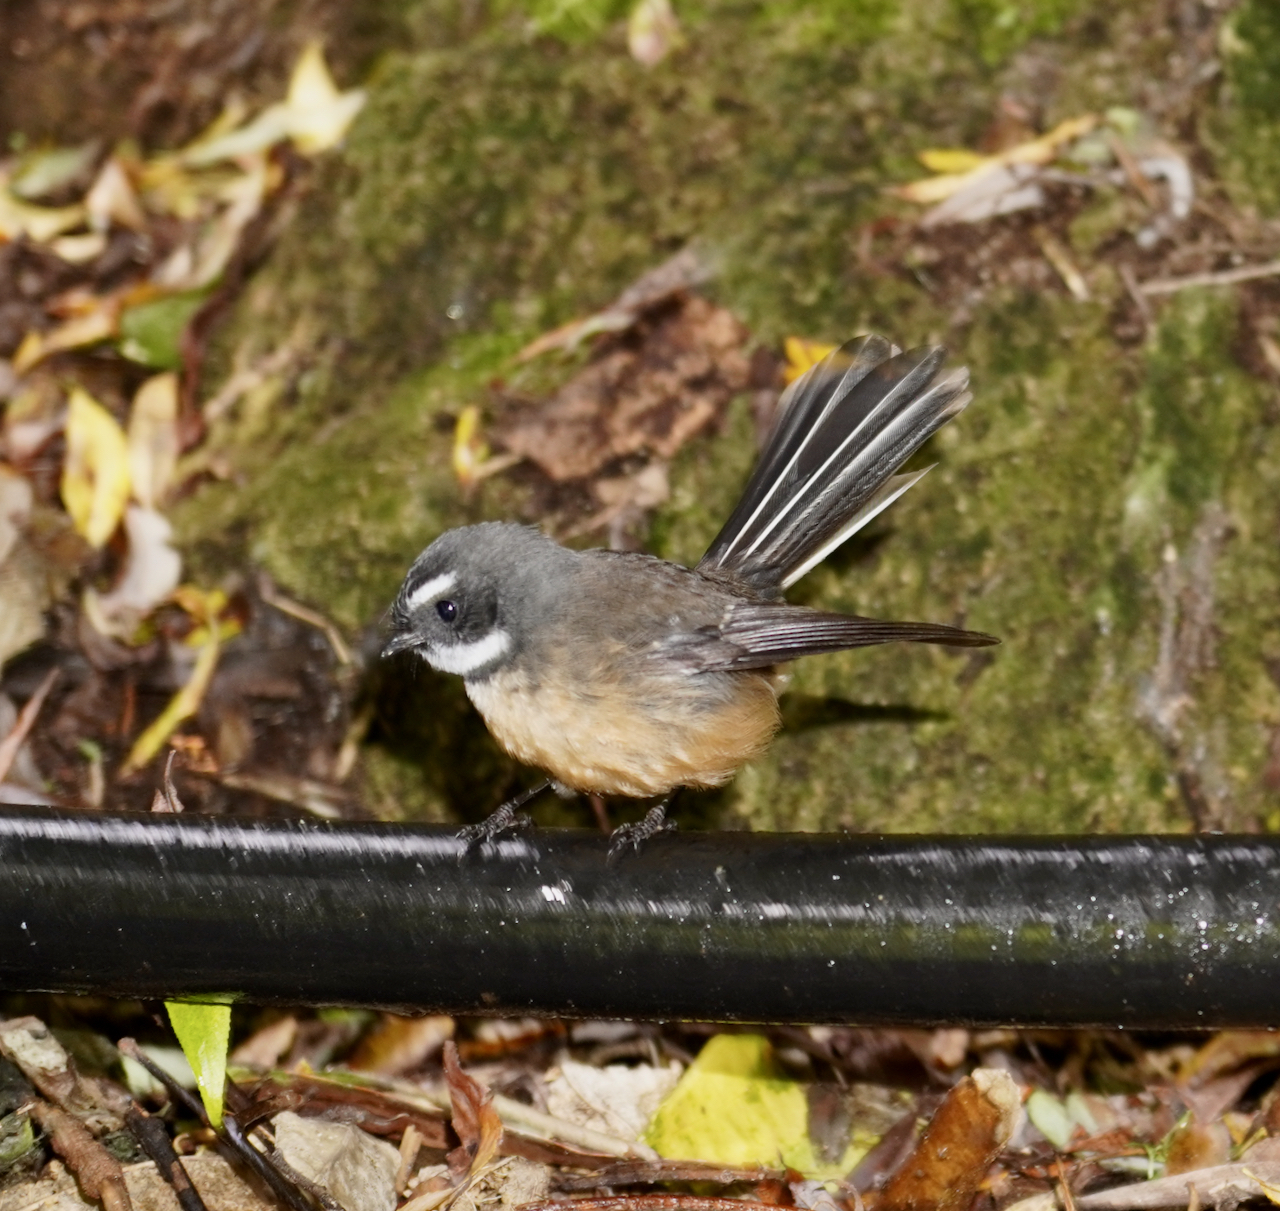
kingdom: Animalia
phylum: Chordata
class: Aves
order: Passeriformes
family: Rhipiduridae
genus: Rhipidura
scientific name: Rhipidura fuliginosa
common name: New zealand fantail
